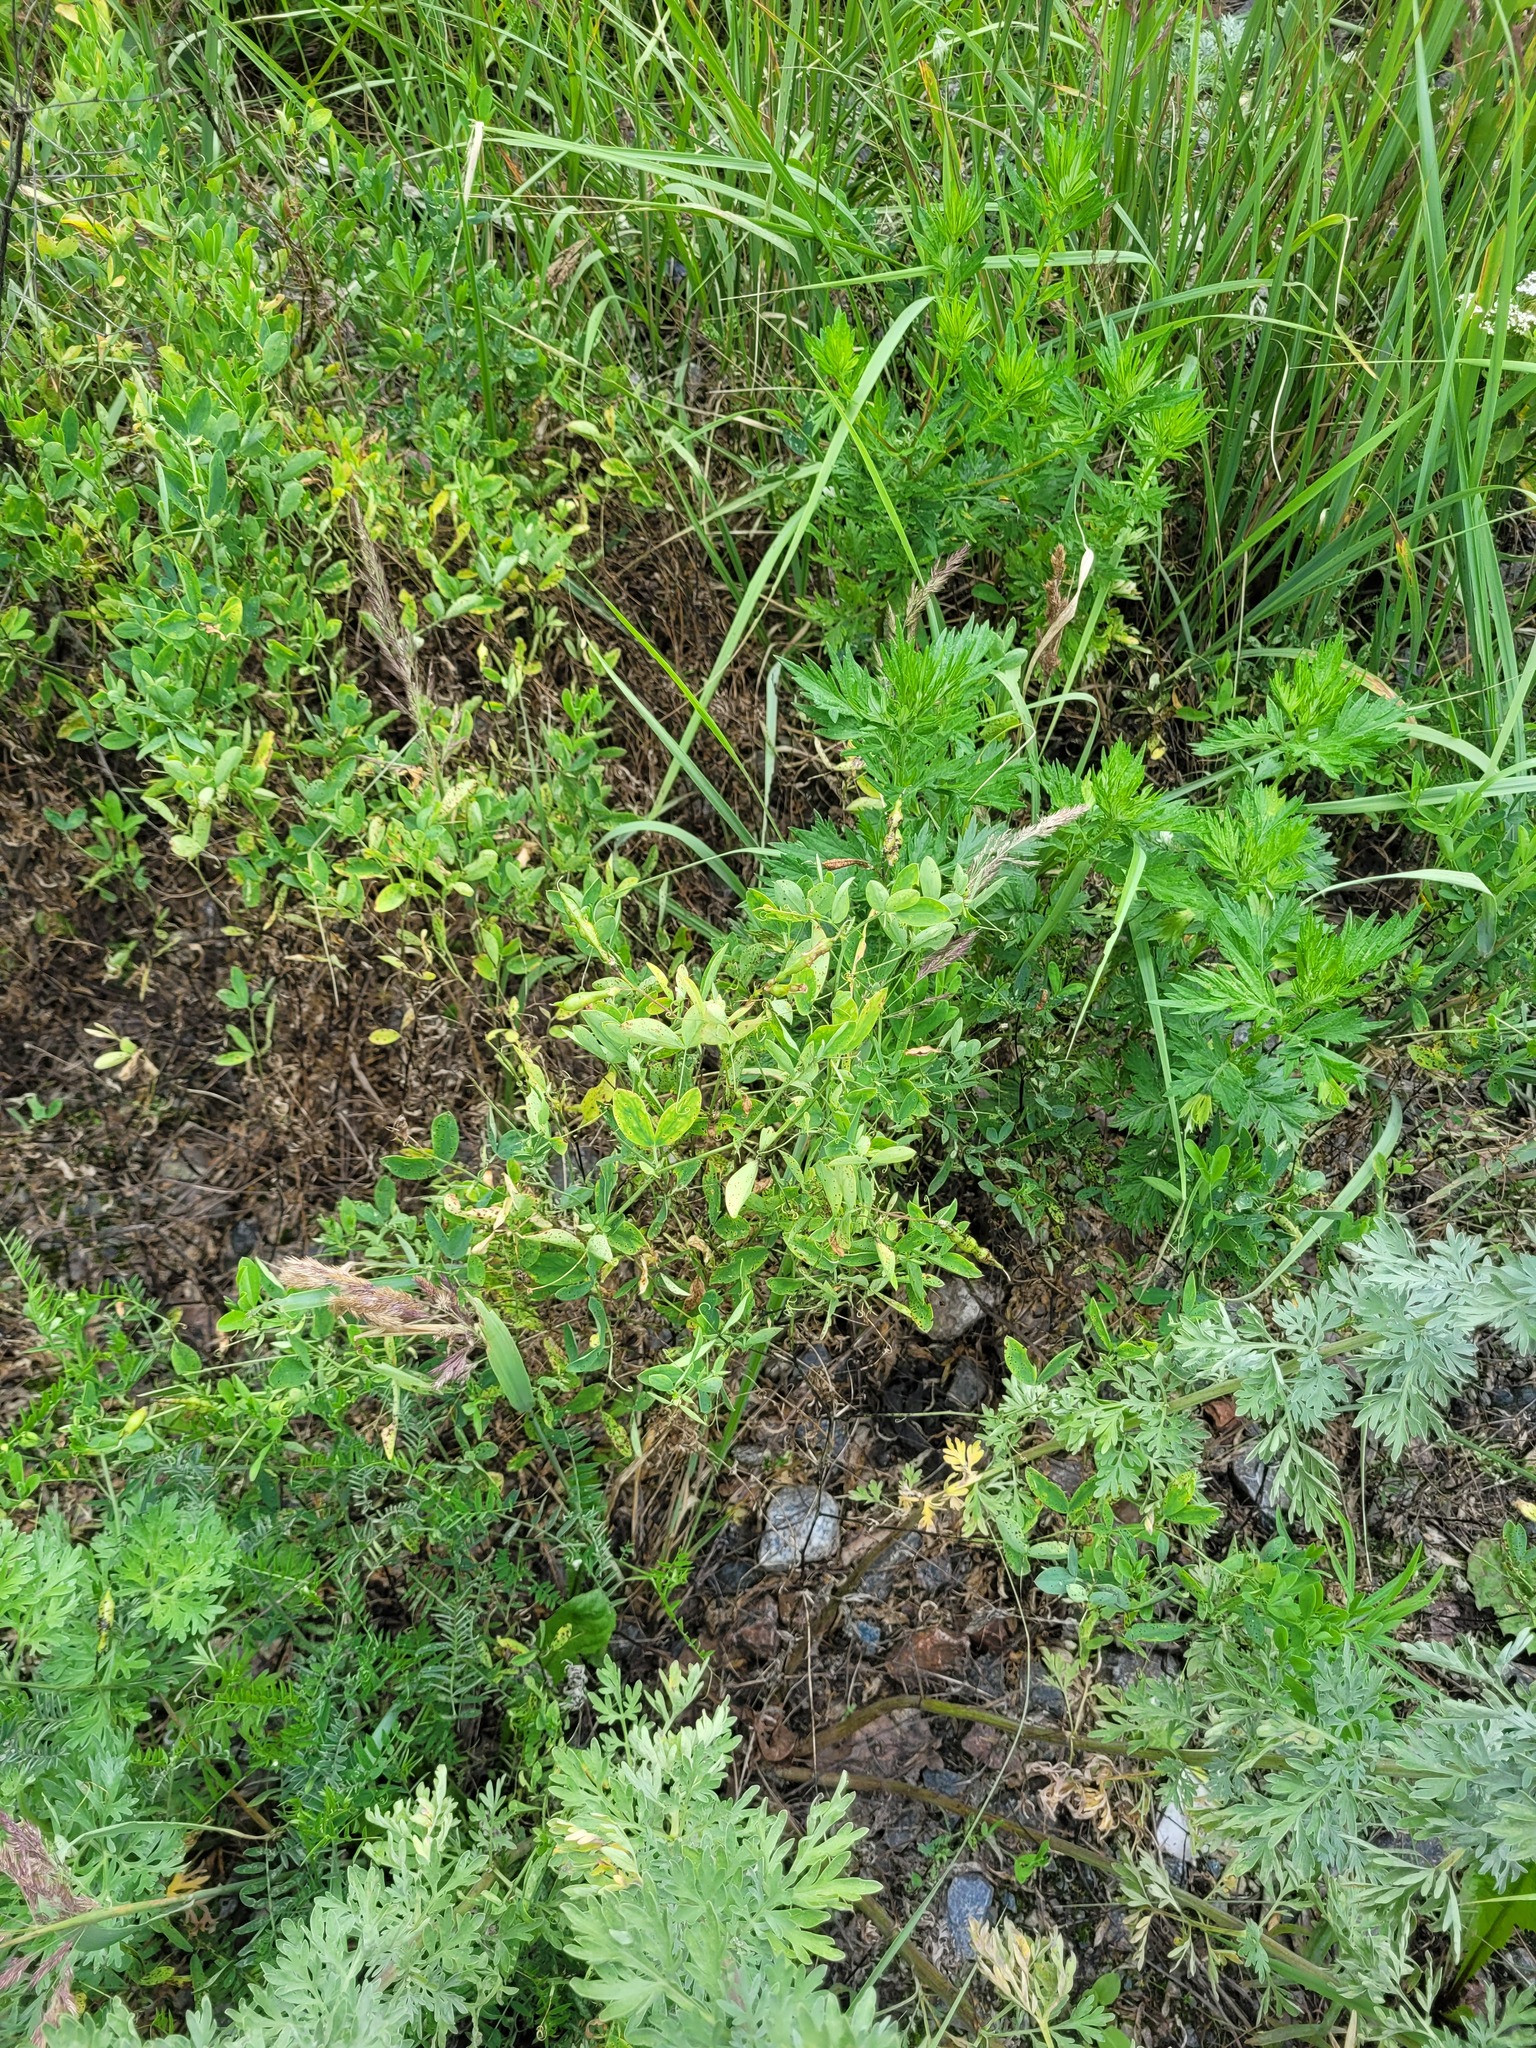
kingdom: Plantae
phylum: Tracheophyta
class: Magnoliopsida
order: Fabales
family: Fabaceae
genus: Lathyrus
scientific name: Lathyrus tuberosus
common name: Tuberous pea
